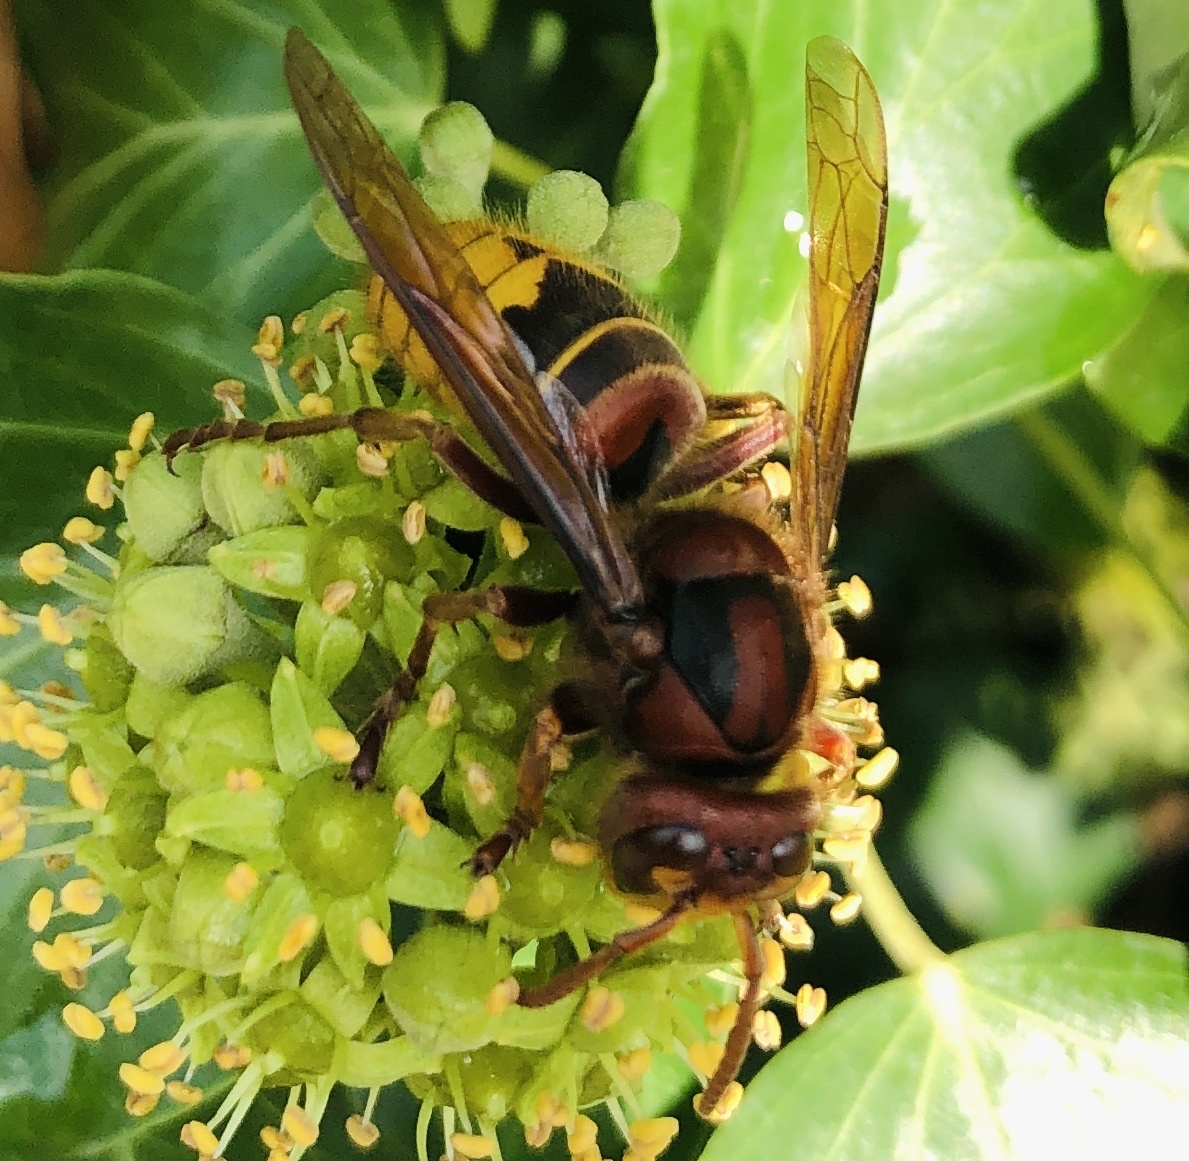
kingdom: Animalia
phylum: Arthropoda
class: Insecta
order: Hymenoptera
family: Vespidae
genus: Vespa
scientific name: Vespa crabro
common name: Hornet
